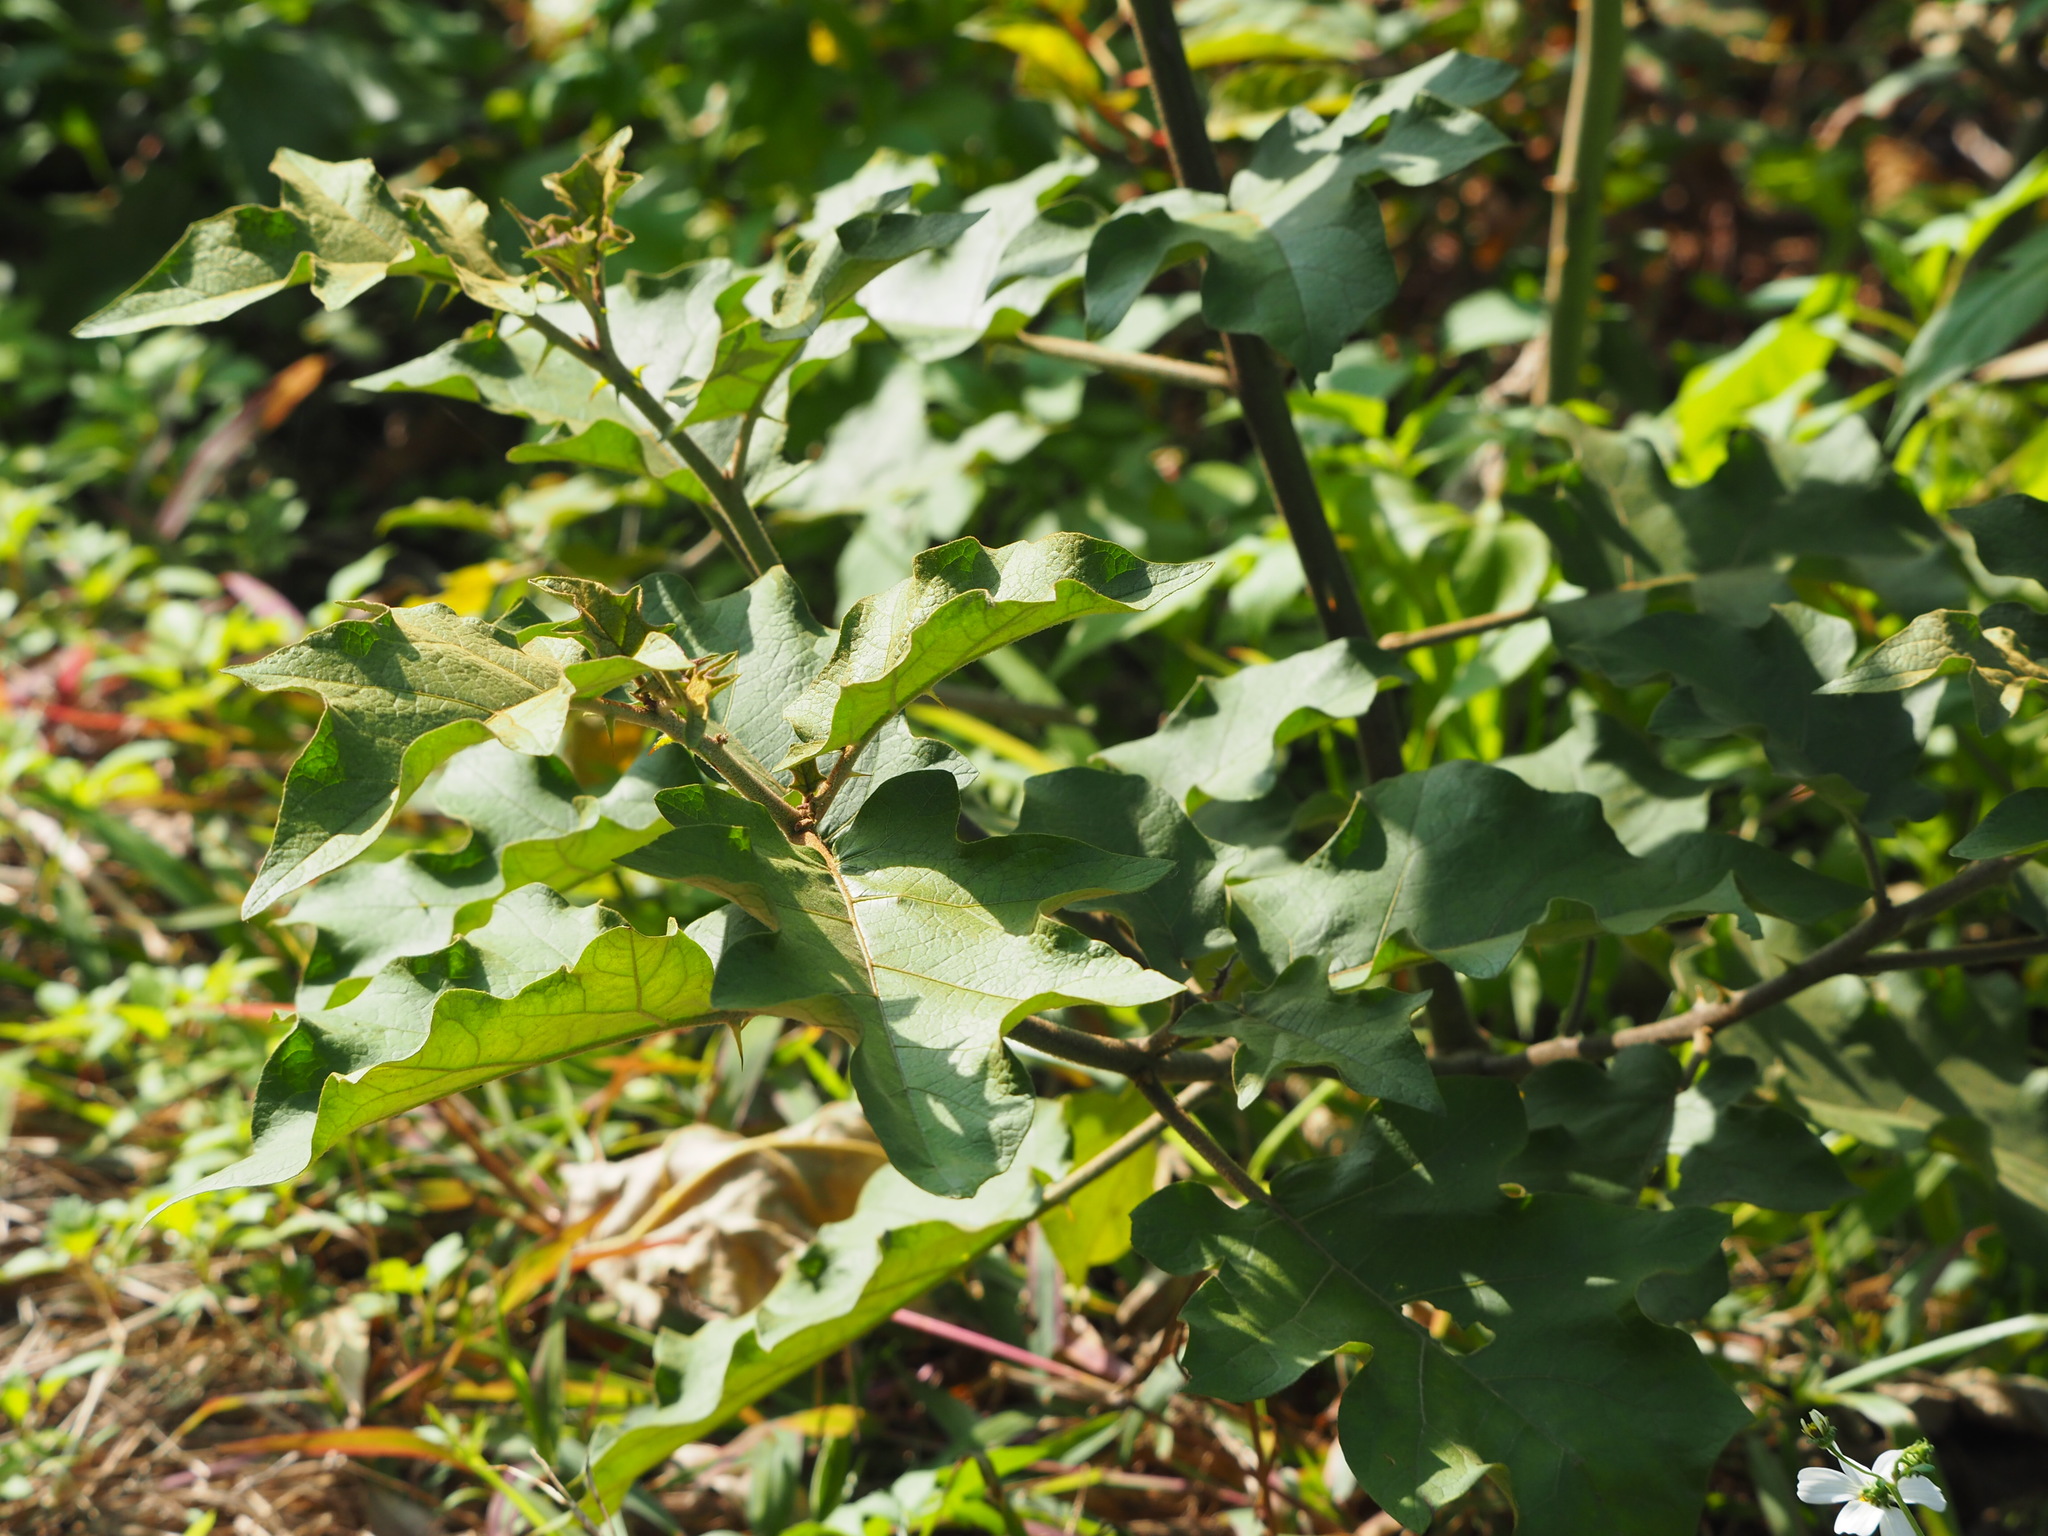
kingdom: Plantae
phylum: Tracheophyta
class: Magnoliopsida
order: Solanales
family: Solanaceae
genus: Solanum
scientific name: Solanum torvum
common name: Turkey berry
